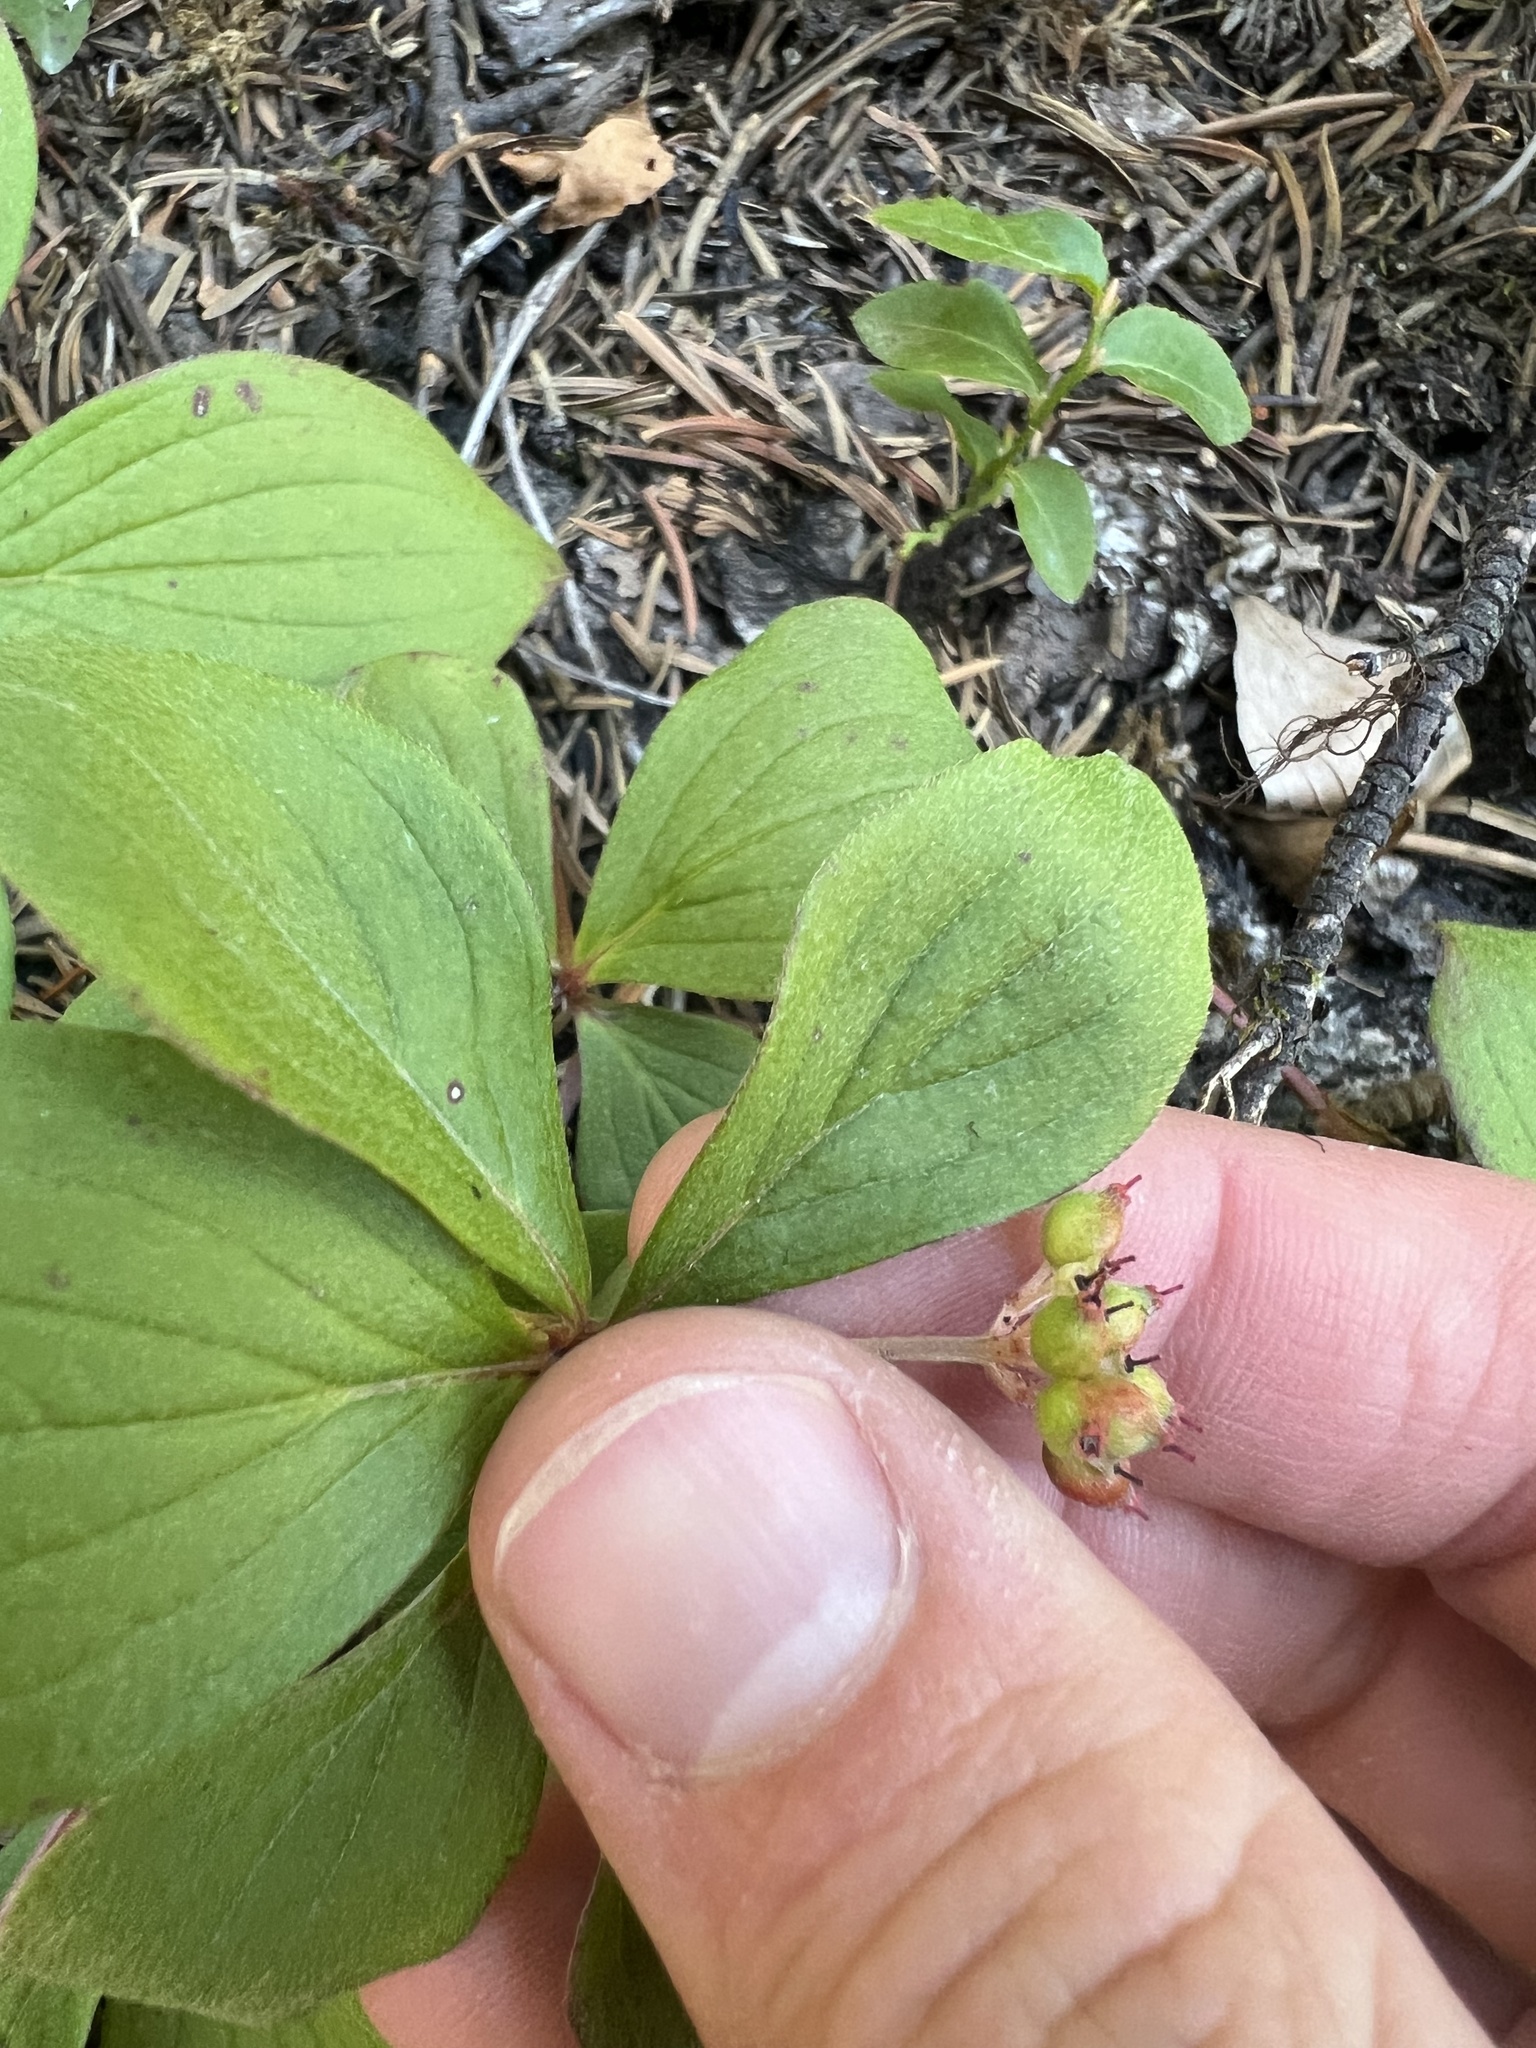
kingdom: Plantae
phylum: Tracheophyta
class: Magnoliopsida
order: Cornales
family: Cornaceae
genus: Cornus
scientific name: Cornus canadensis
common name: Creeping dogwood
